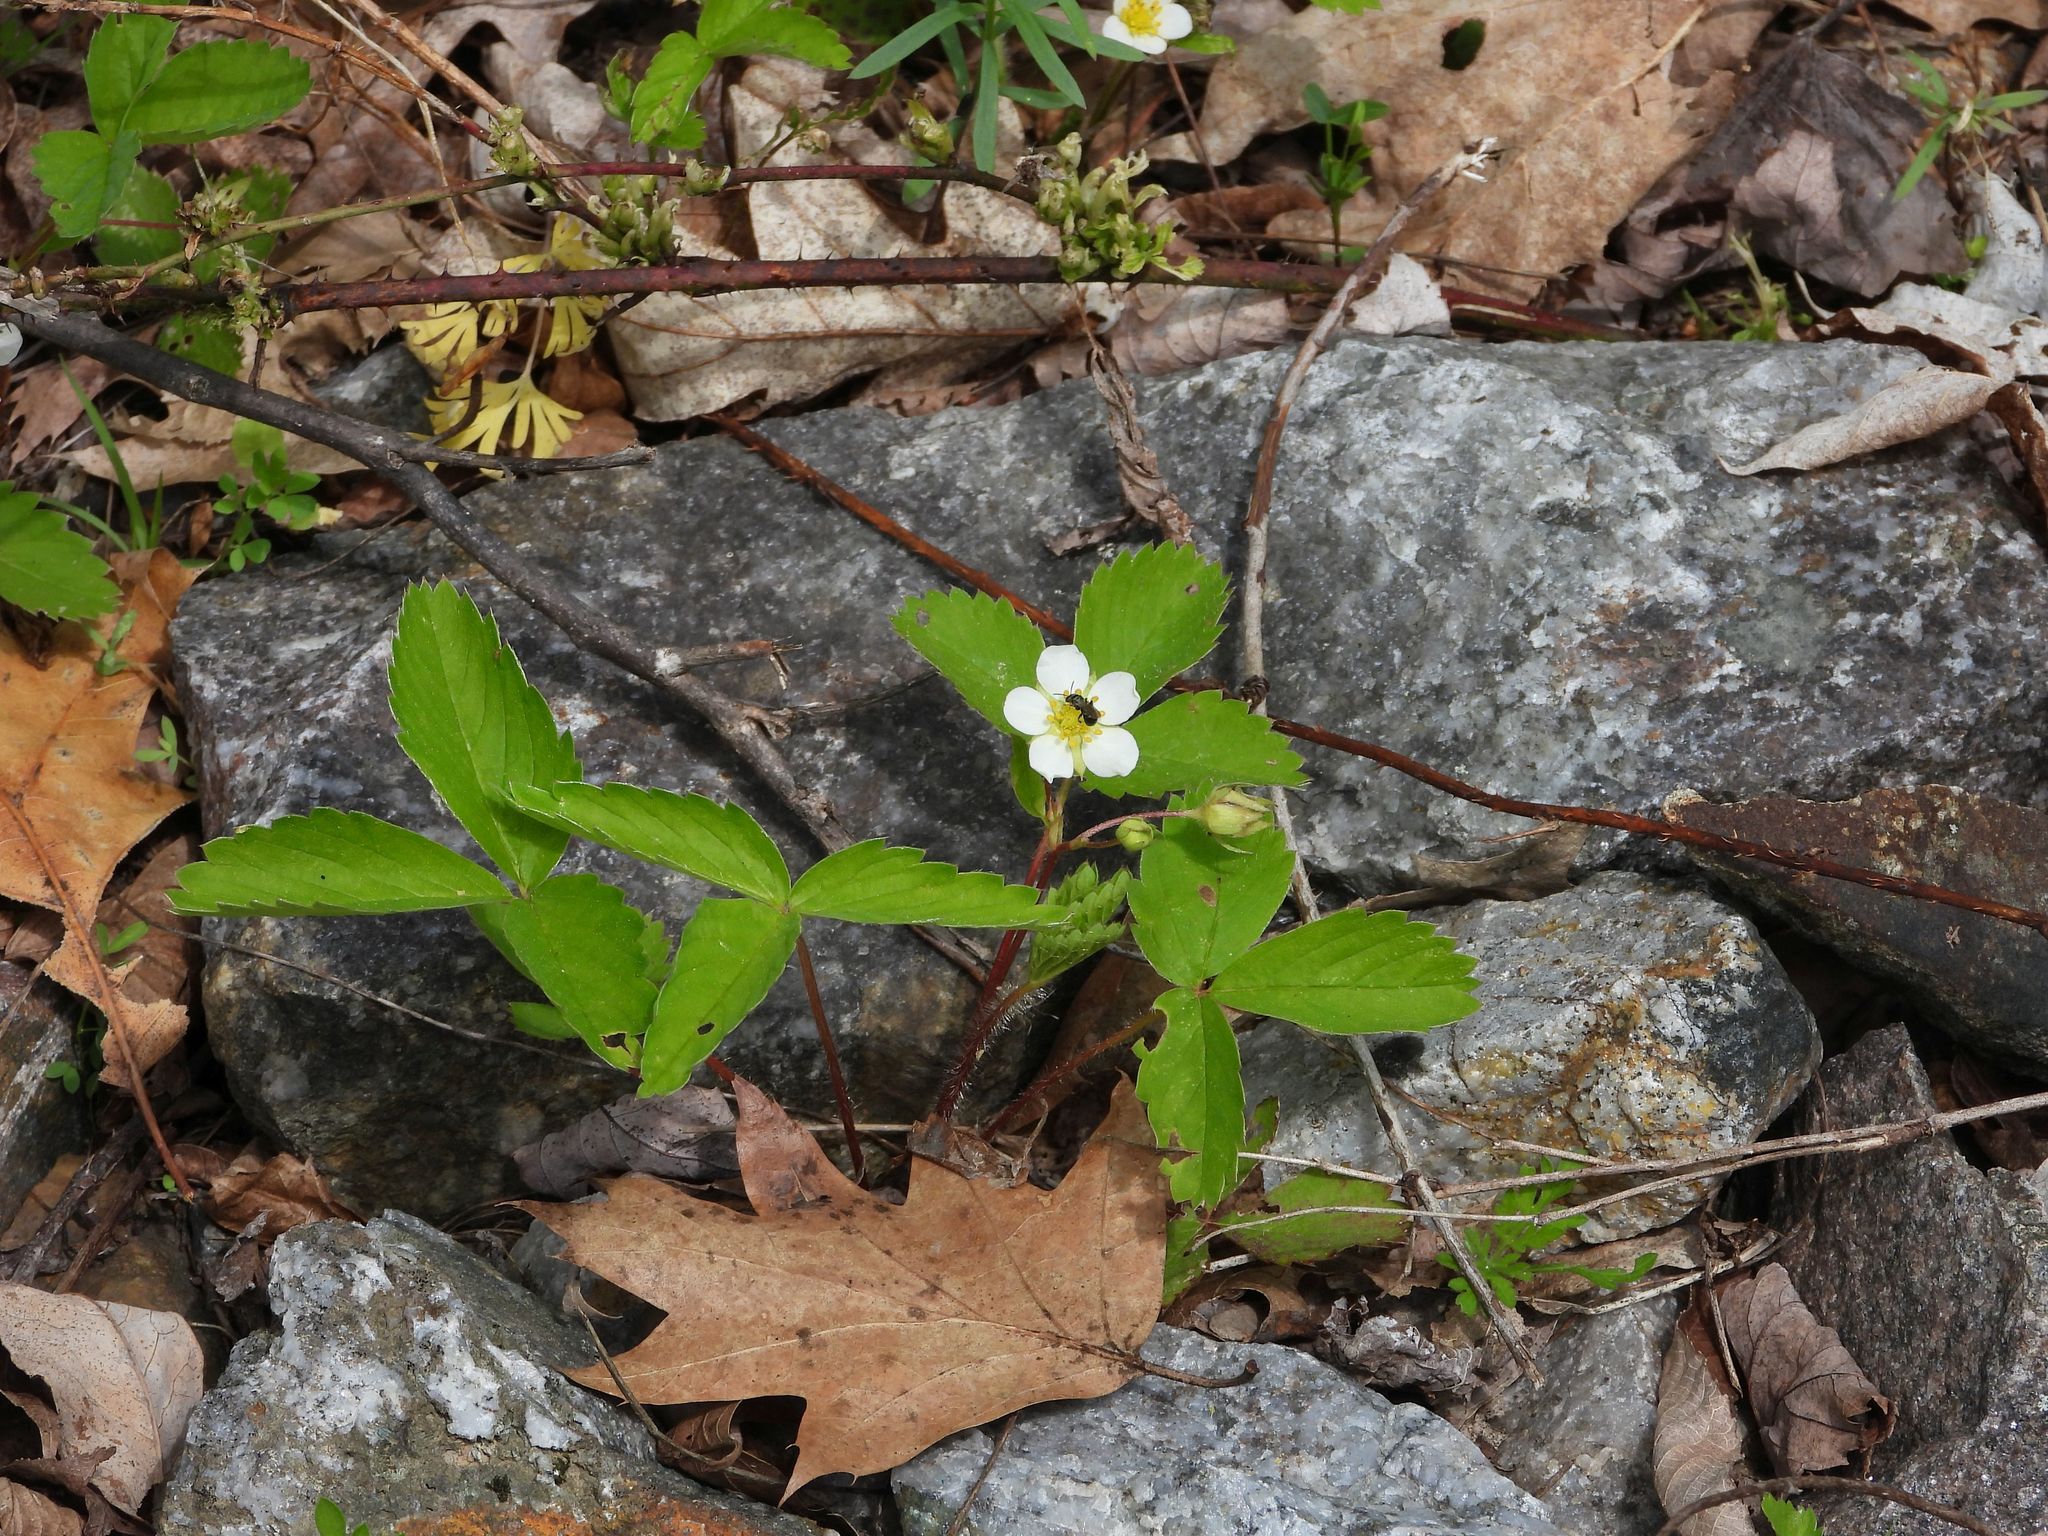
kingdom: Plantae
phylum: Tracheophyta
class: Magnoliopsida
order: Rosales
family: Rosaceae
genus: Fragaria
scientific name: Fragaria virginiana
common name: Thickleaved wild strawberry
